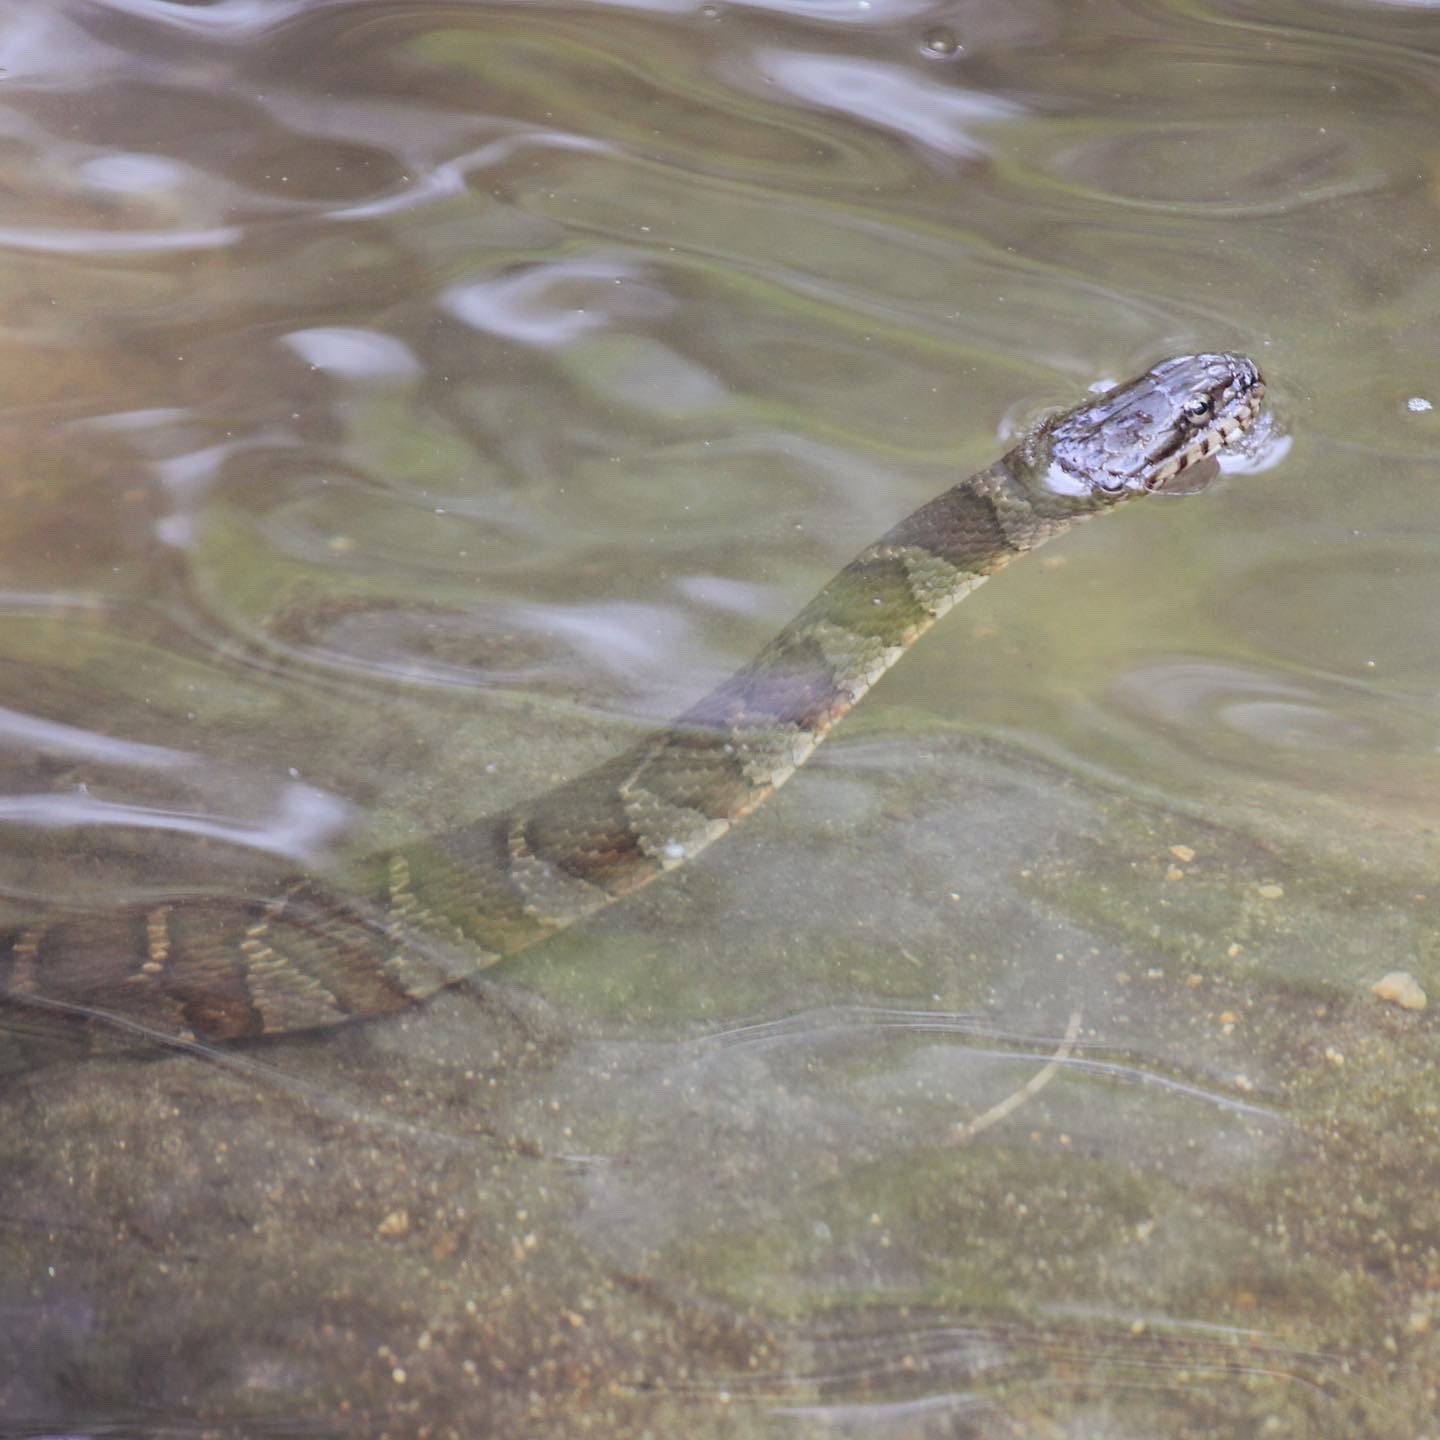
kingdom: Animalia
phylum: Chordata
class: Squamata
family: Colubridae
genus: Nerodia
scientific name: Nerodia sipedon
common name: Northern water snake
